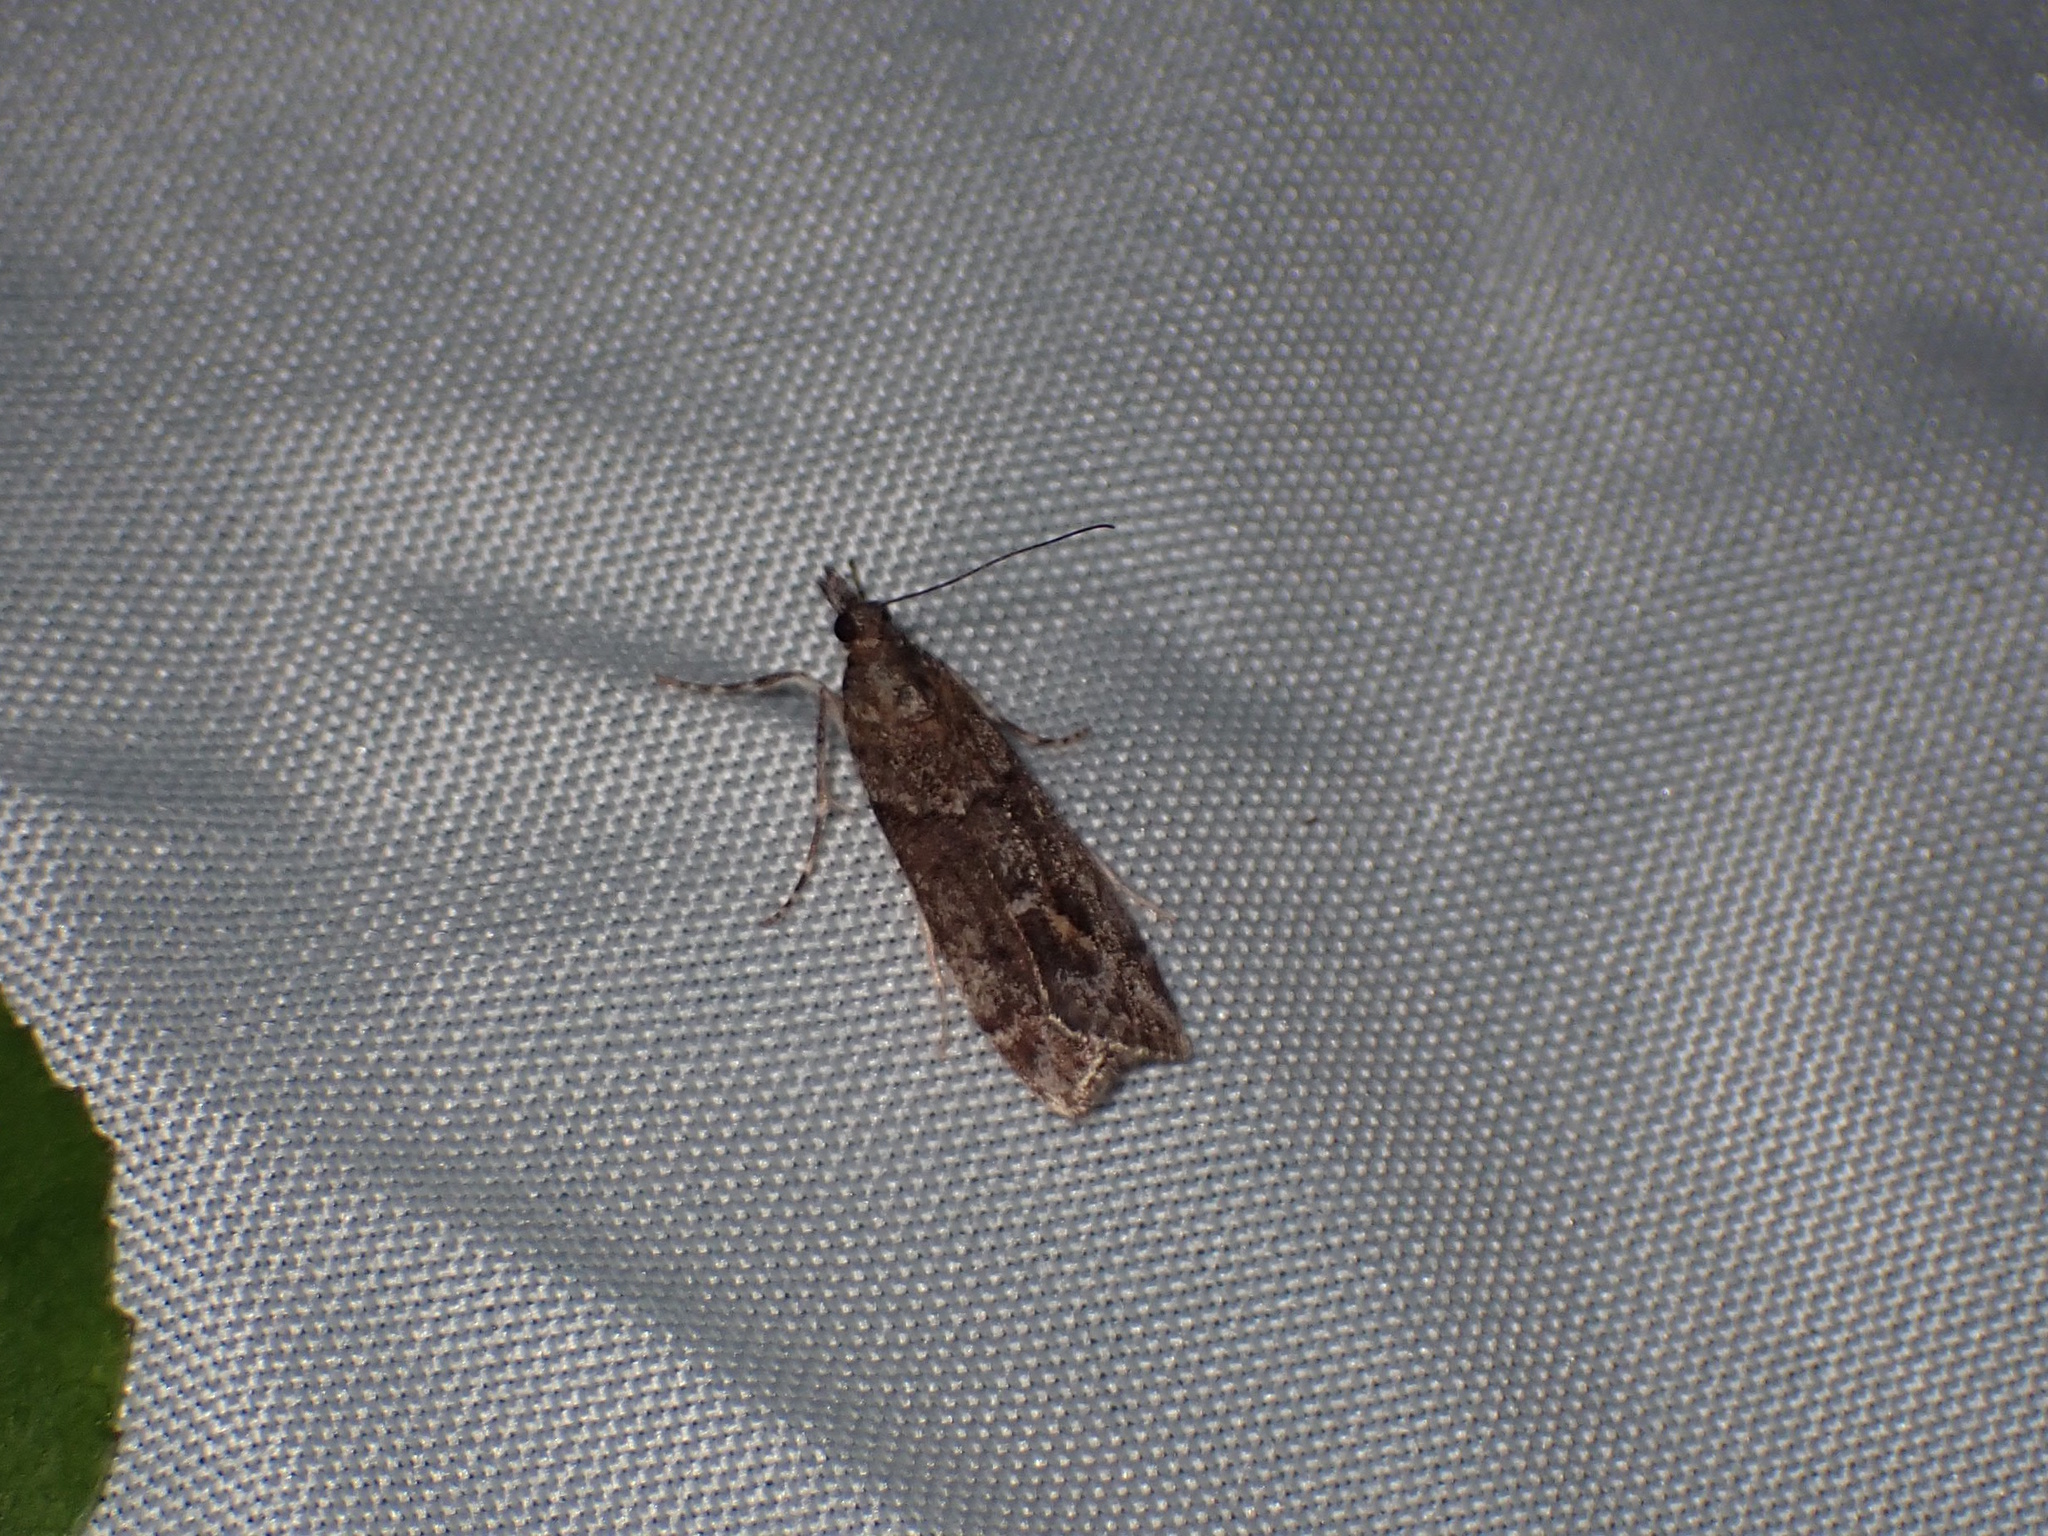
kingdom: Animalia
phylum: Arthropoda
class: Insecta
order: Lepidoptera
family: Crambidae
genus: Eudonia
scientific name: Eudonia submarginalis
